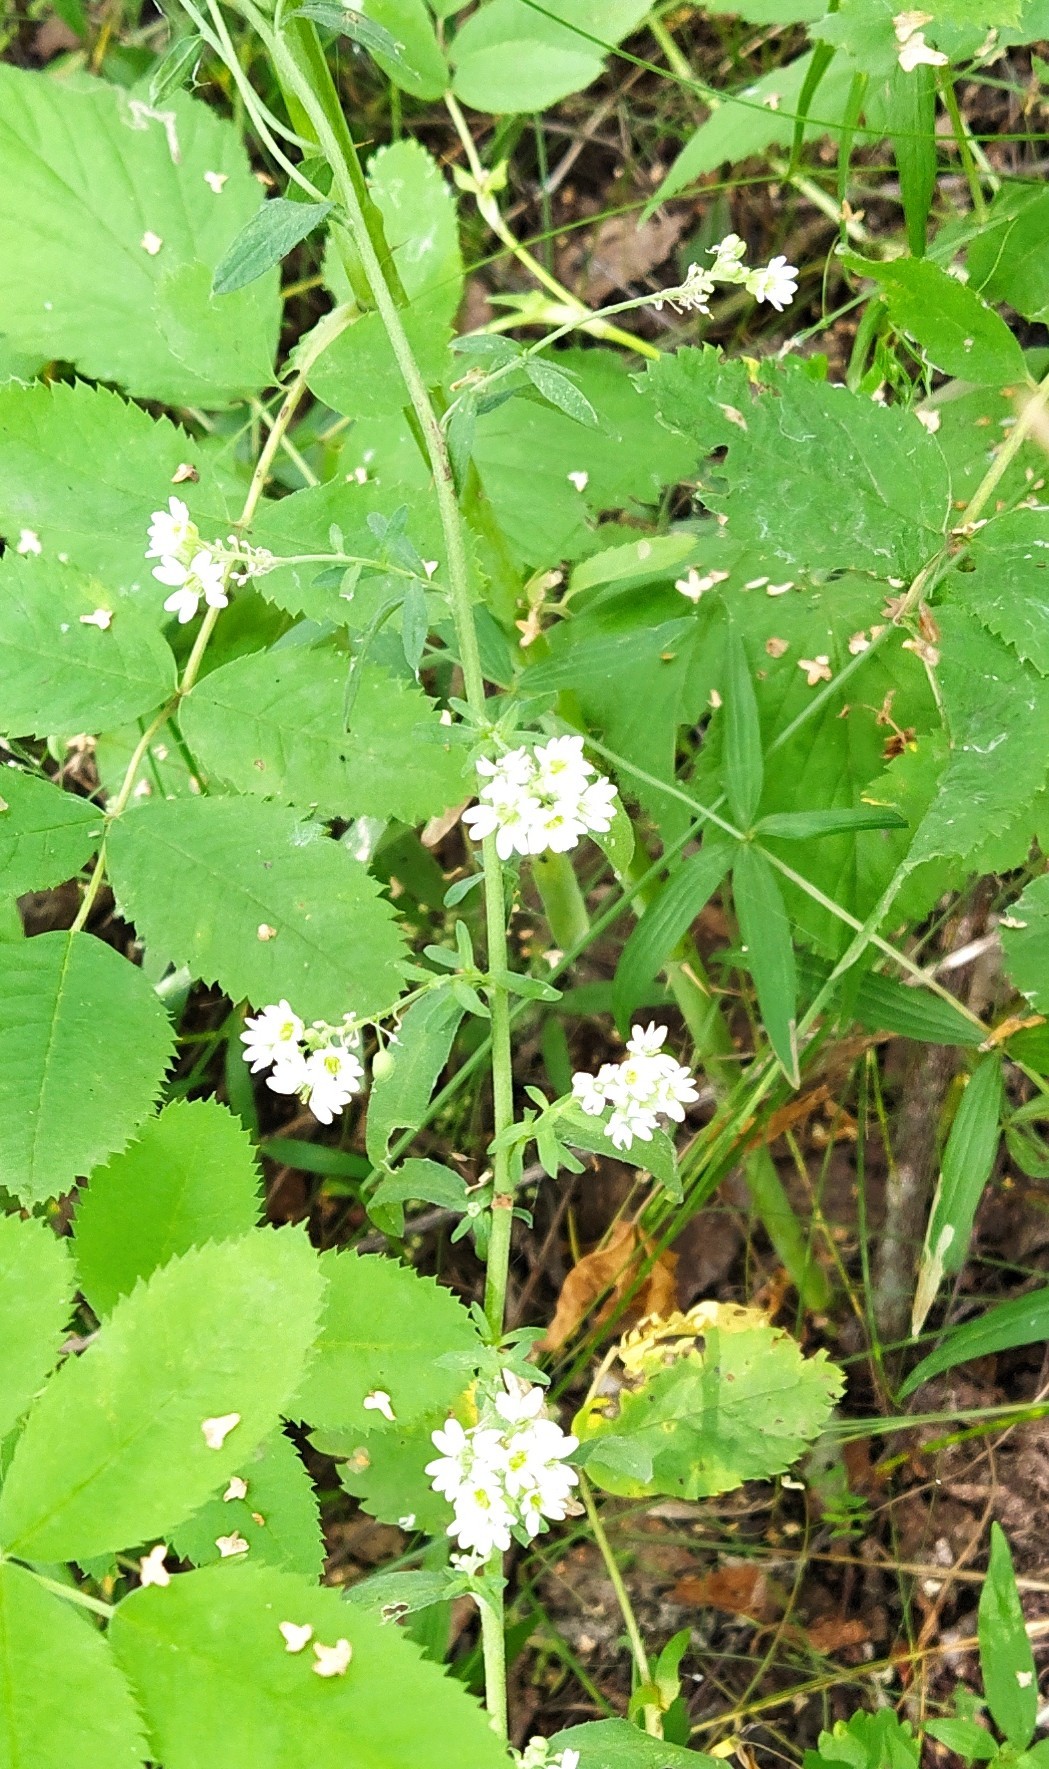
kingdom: Plantae
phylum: Tracheophyta
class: Magnoliopsida
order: Brassicales
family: Brassicaceae
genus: Berteroa
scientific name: Berteroa incana
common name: Hoary alison
